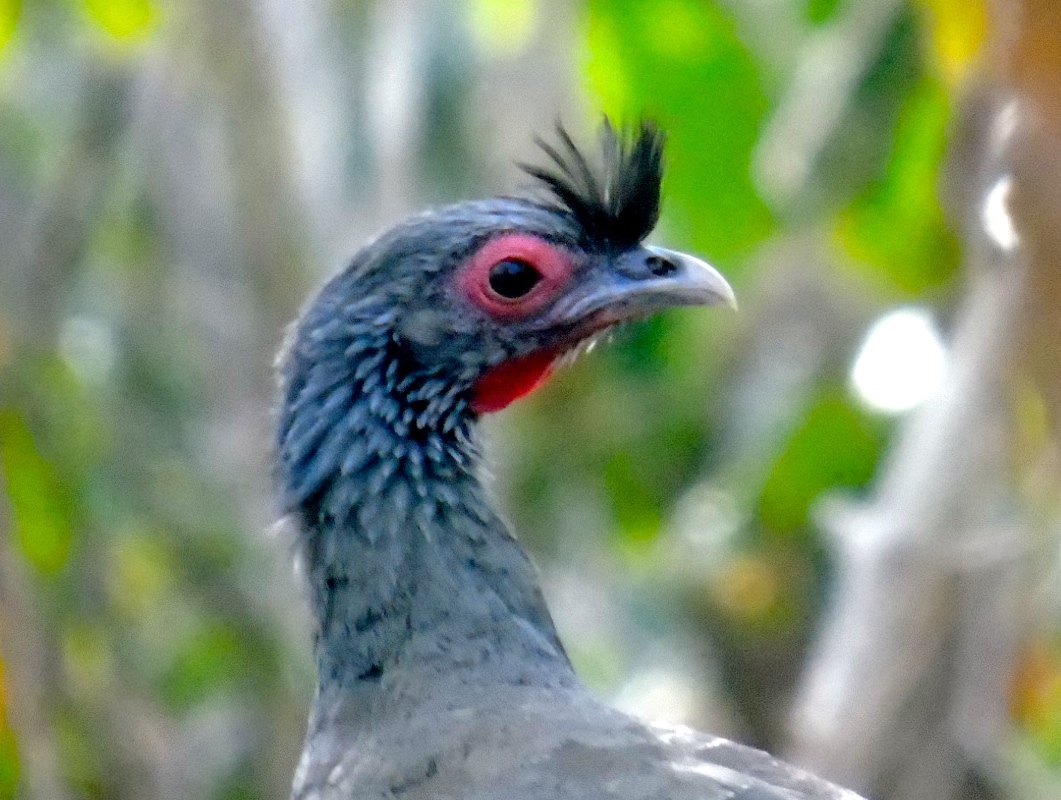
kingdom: Animalia
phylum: Chordata
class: Aves
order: Galliformes
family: Cracidae
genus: Ortalis
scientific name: Ortalis wagleri
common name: Rufous-bellied chachalaca
